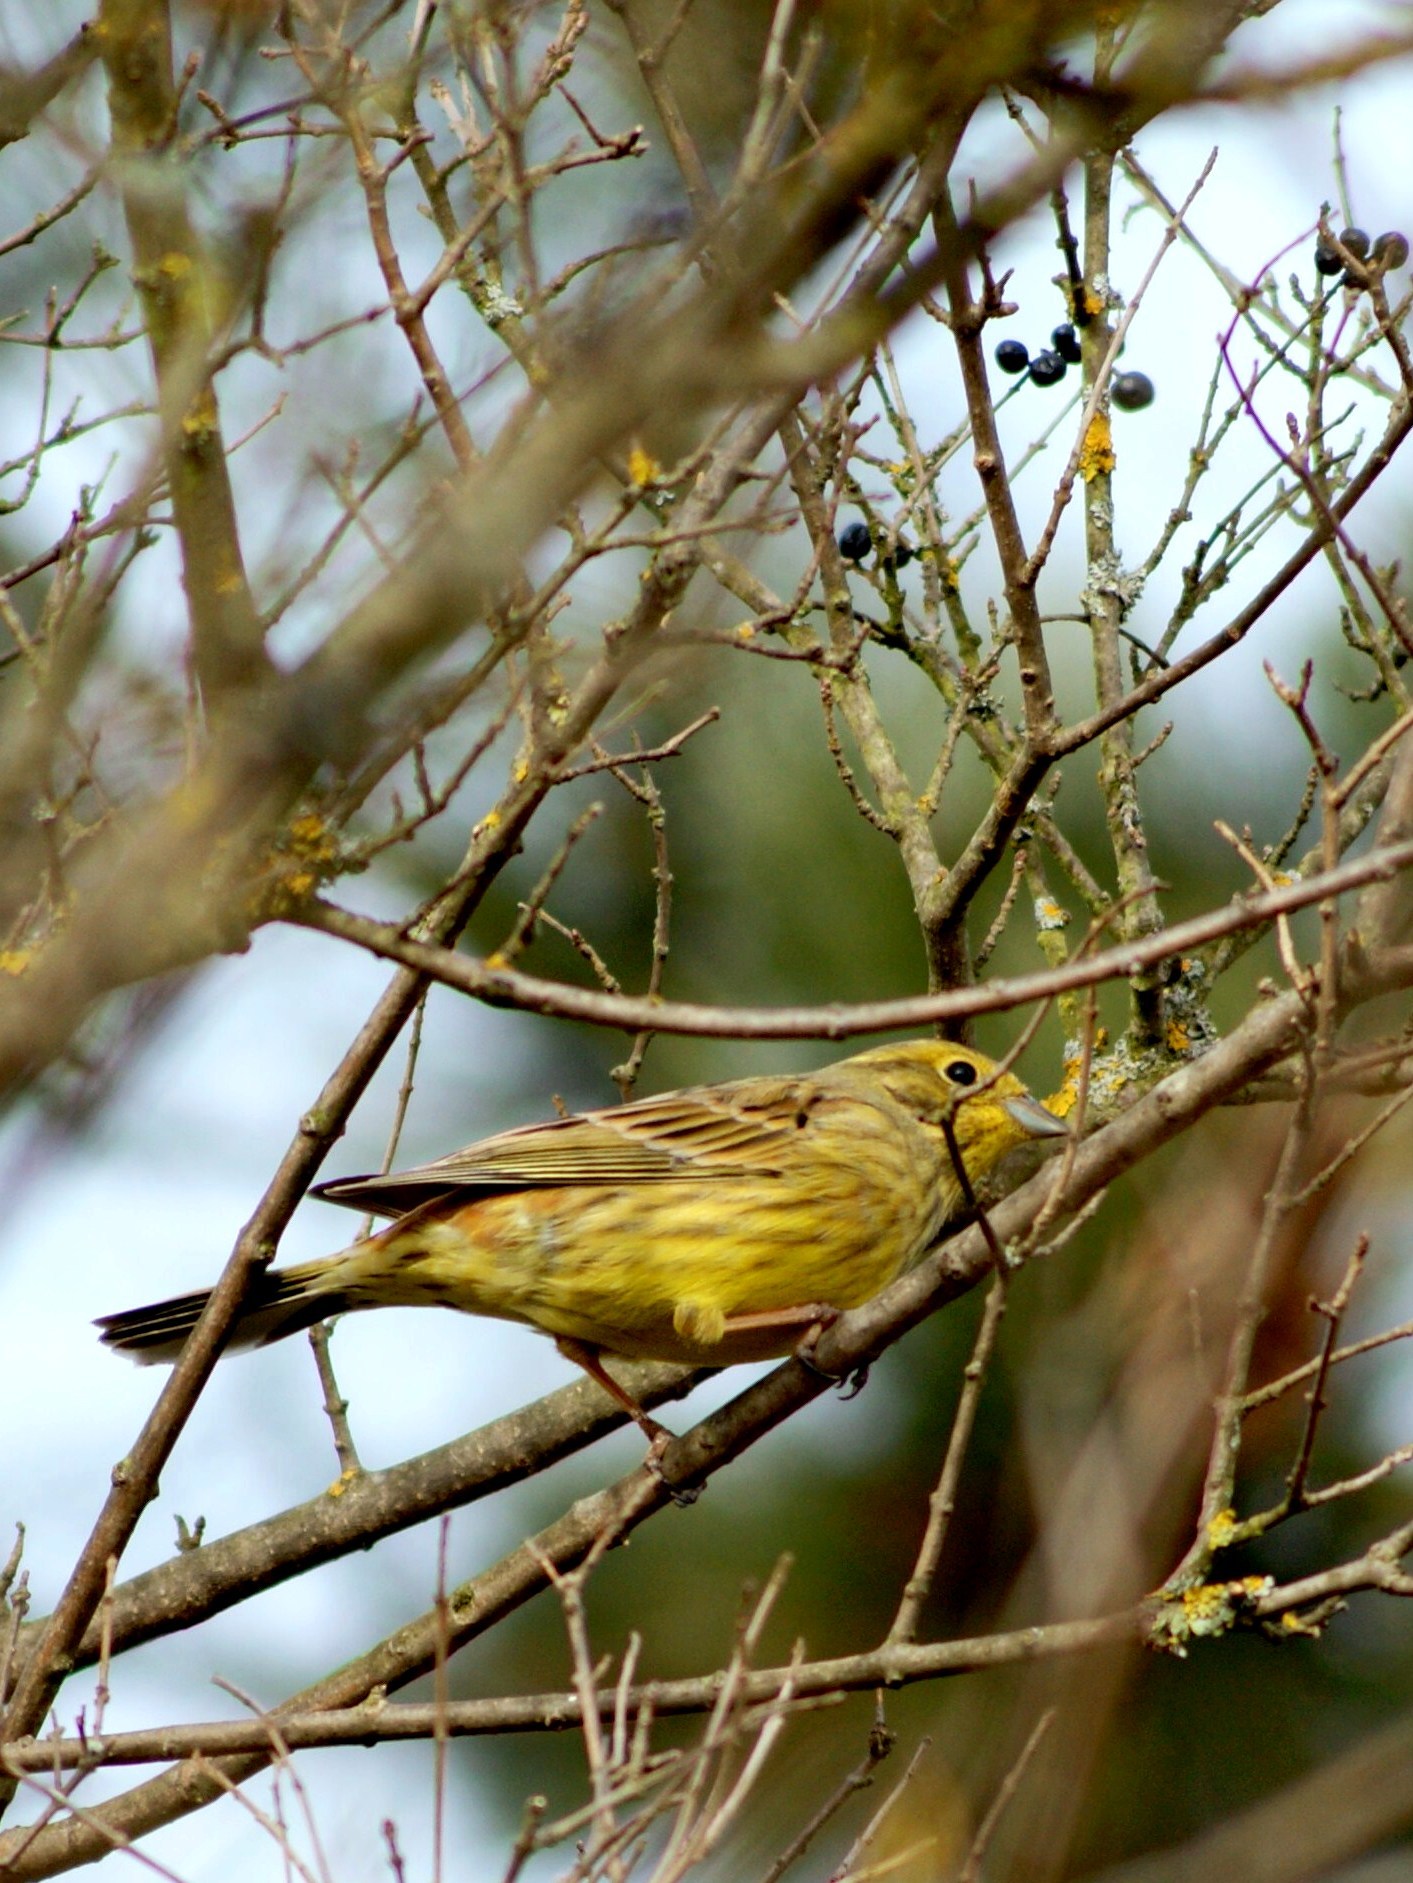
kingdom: Animalia
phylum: Chordata
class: Aves
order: Passeriformes
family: Emberizidae
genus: Emberiza
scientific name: Emberiza citrinella
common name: Yellowhammer
